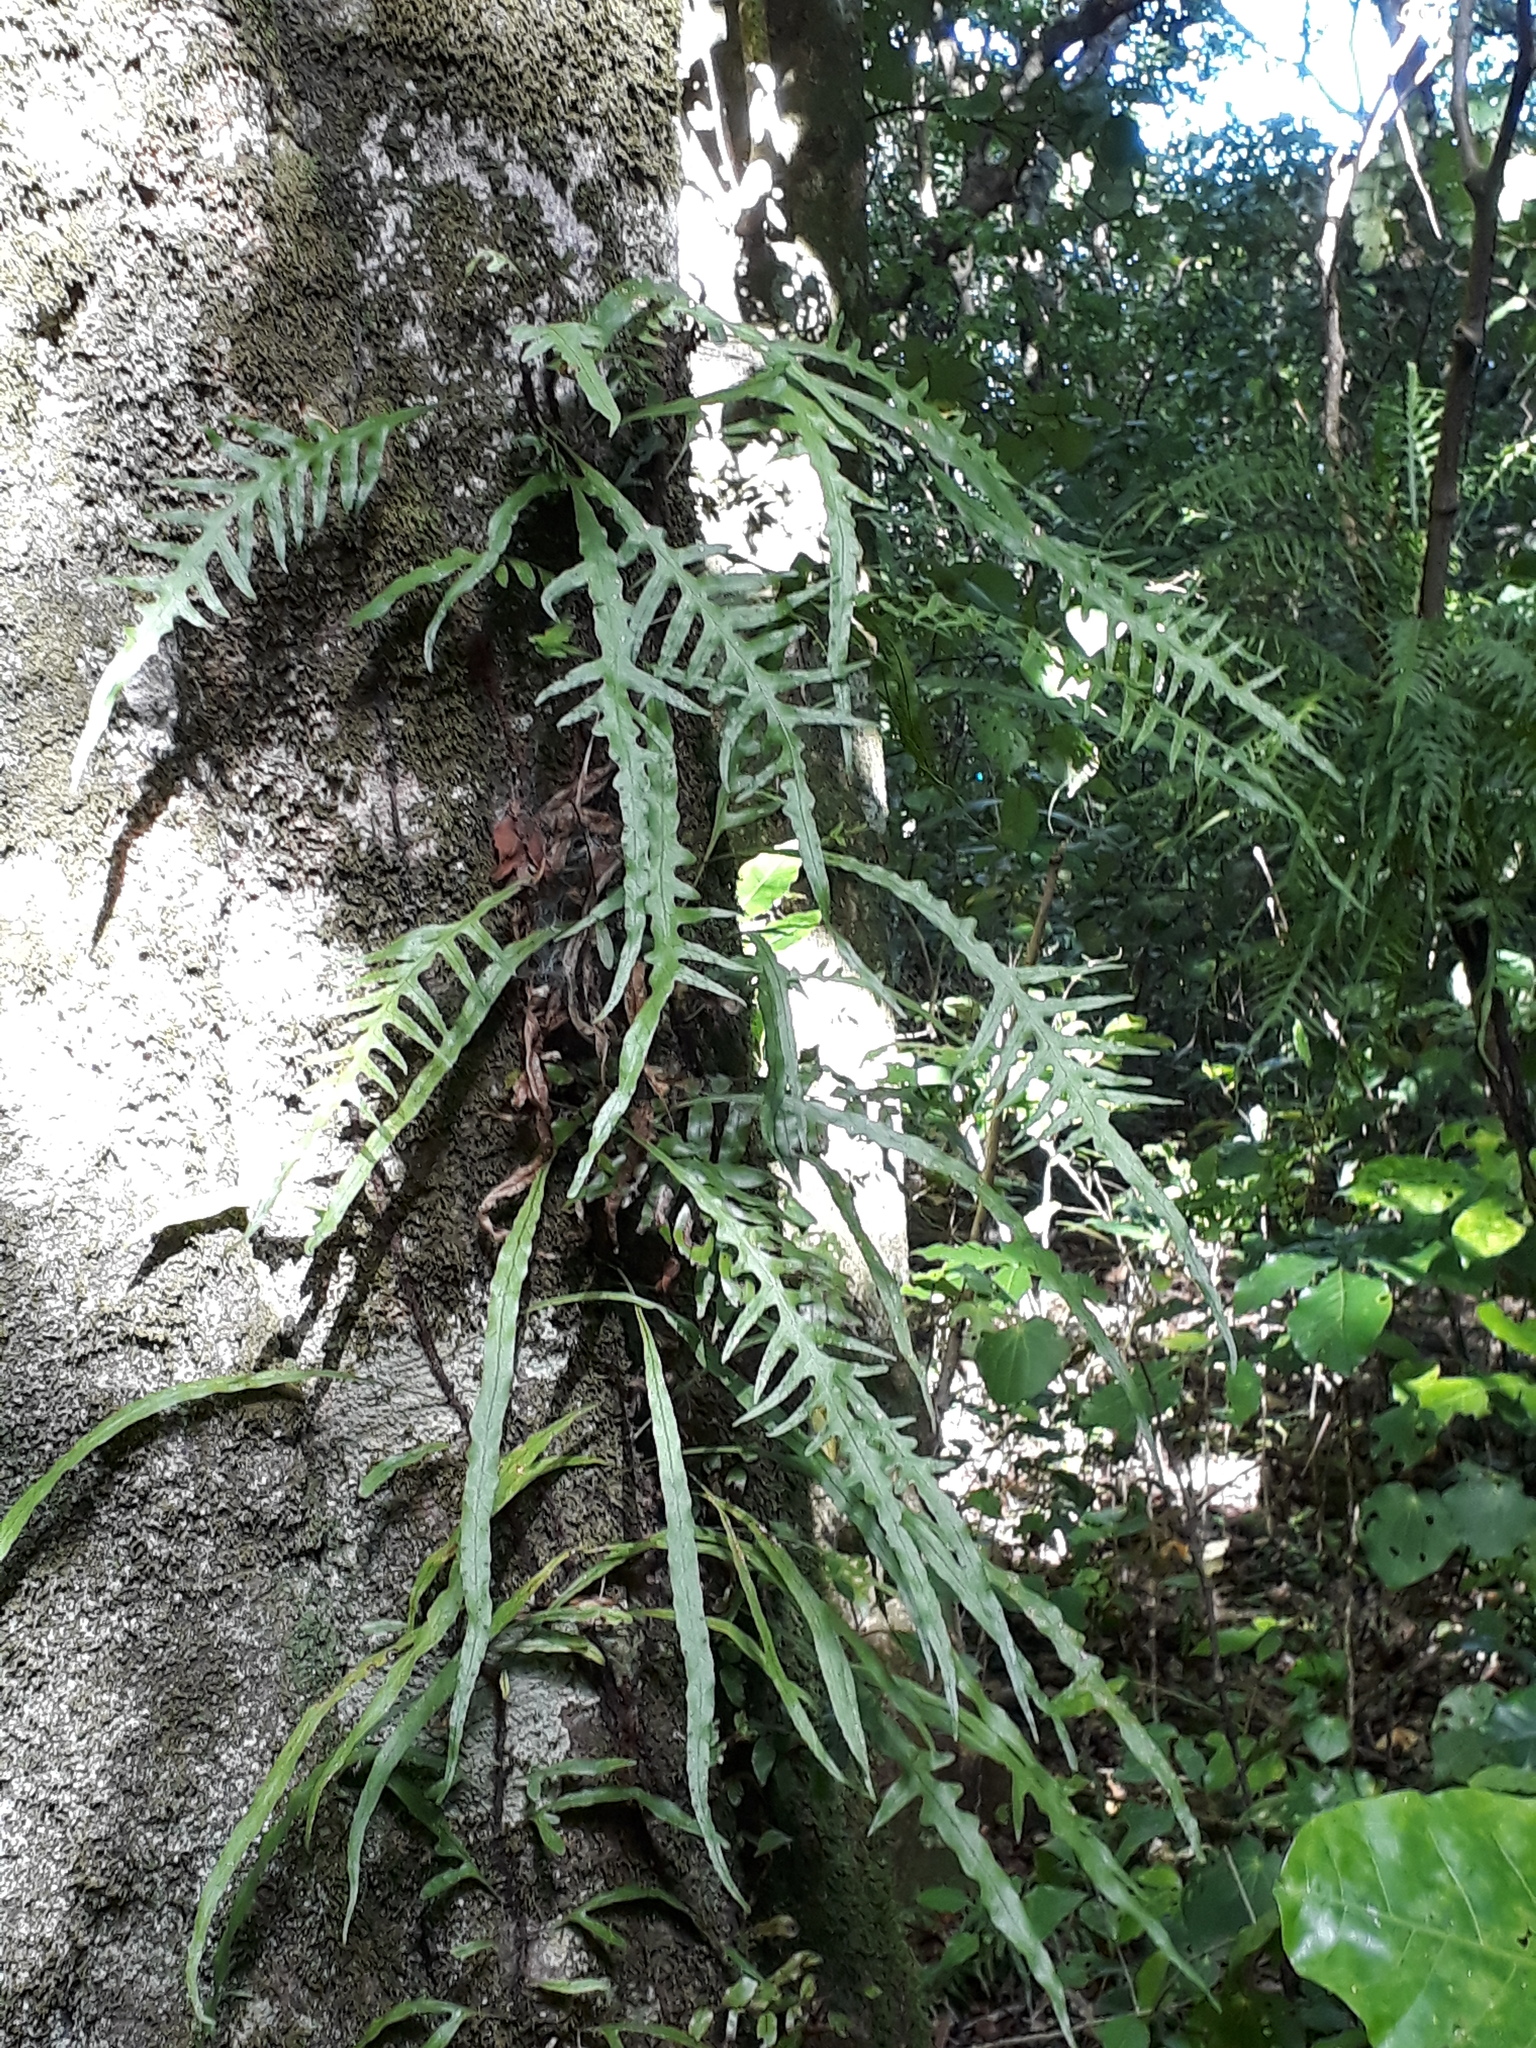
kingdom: Plantae
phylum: Tracheophyta
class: Polypodiopsida
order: Polypodiales
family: Polypodiaceae
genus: Lecanopteris
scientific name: Lecanopteris scandens
